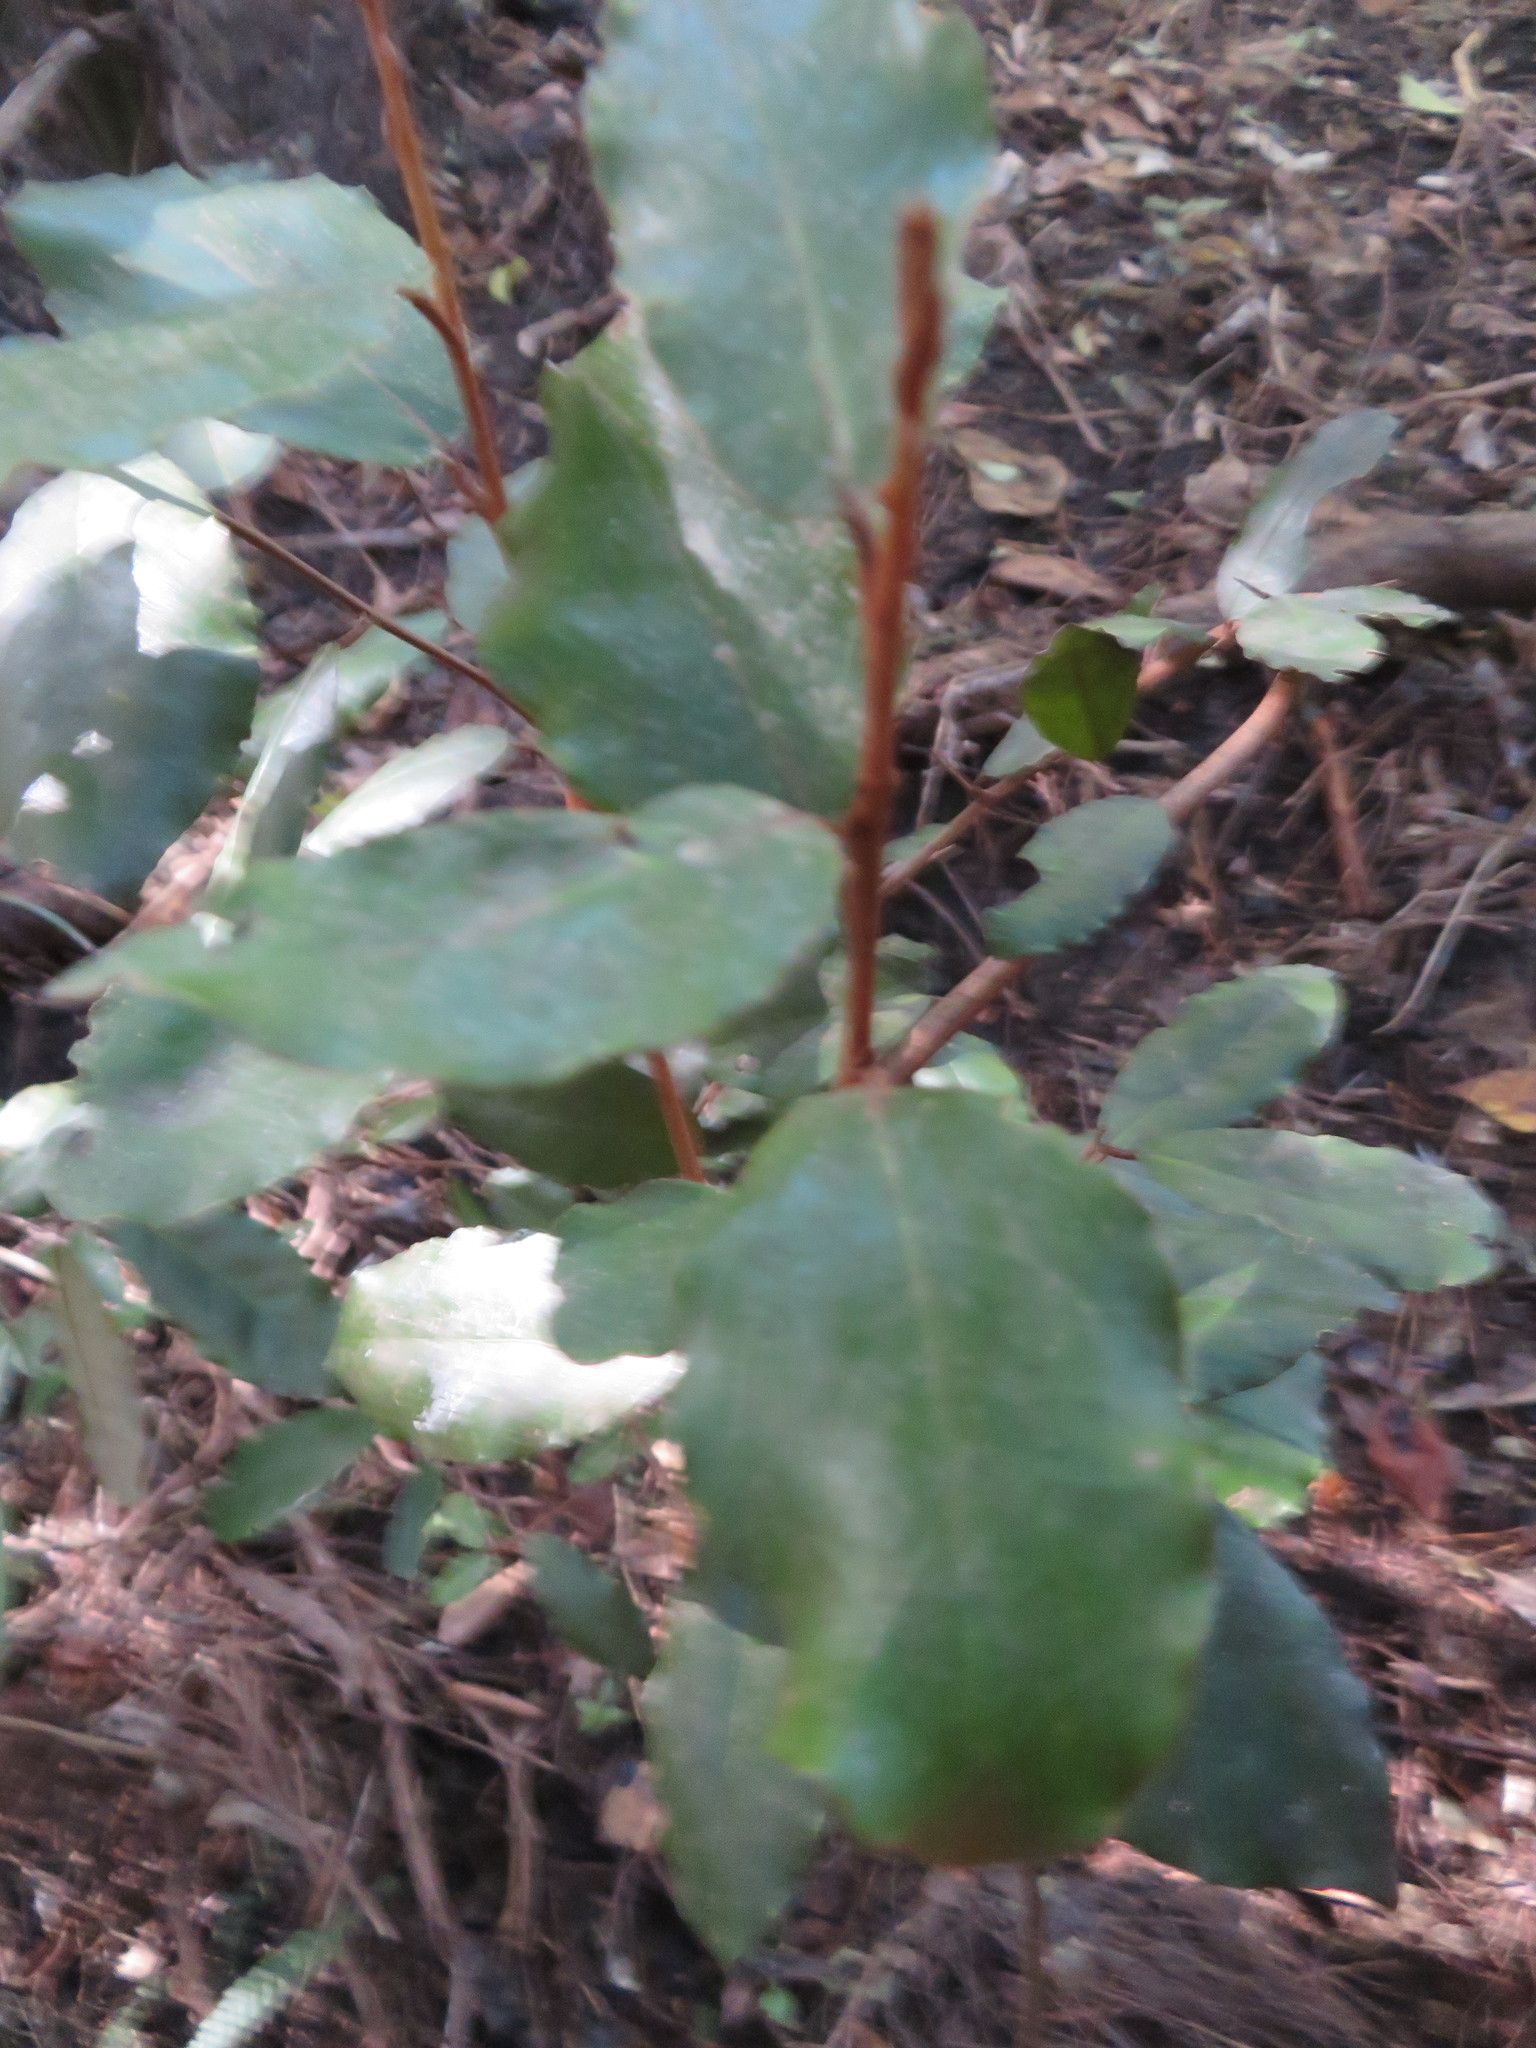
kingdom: Plantae
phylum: Tracheophyta
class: Magnoliopsida
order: Rosales
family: Elaeagnaceae
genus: Elaeagnus
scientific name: Elaeagnus reflexa
